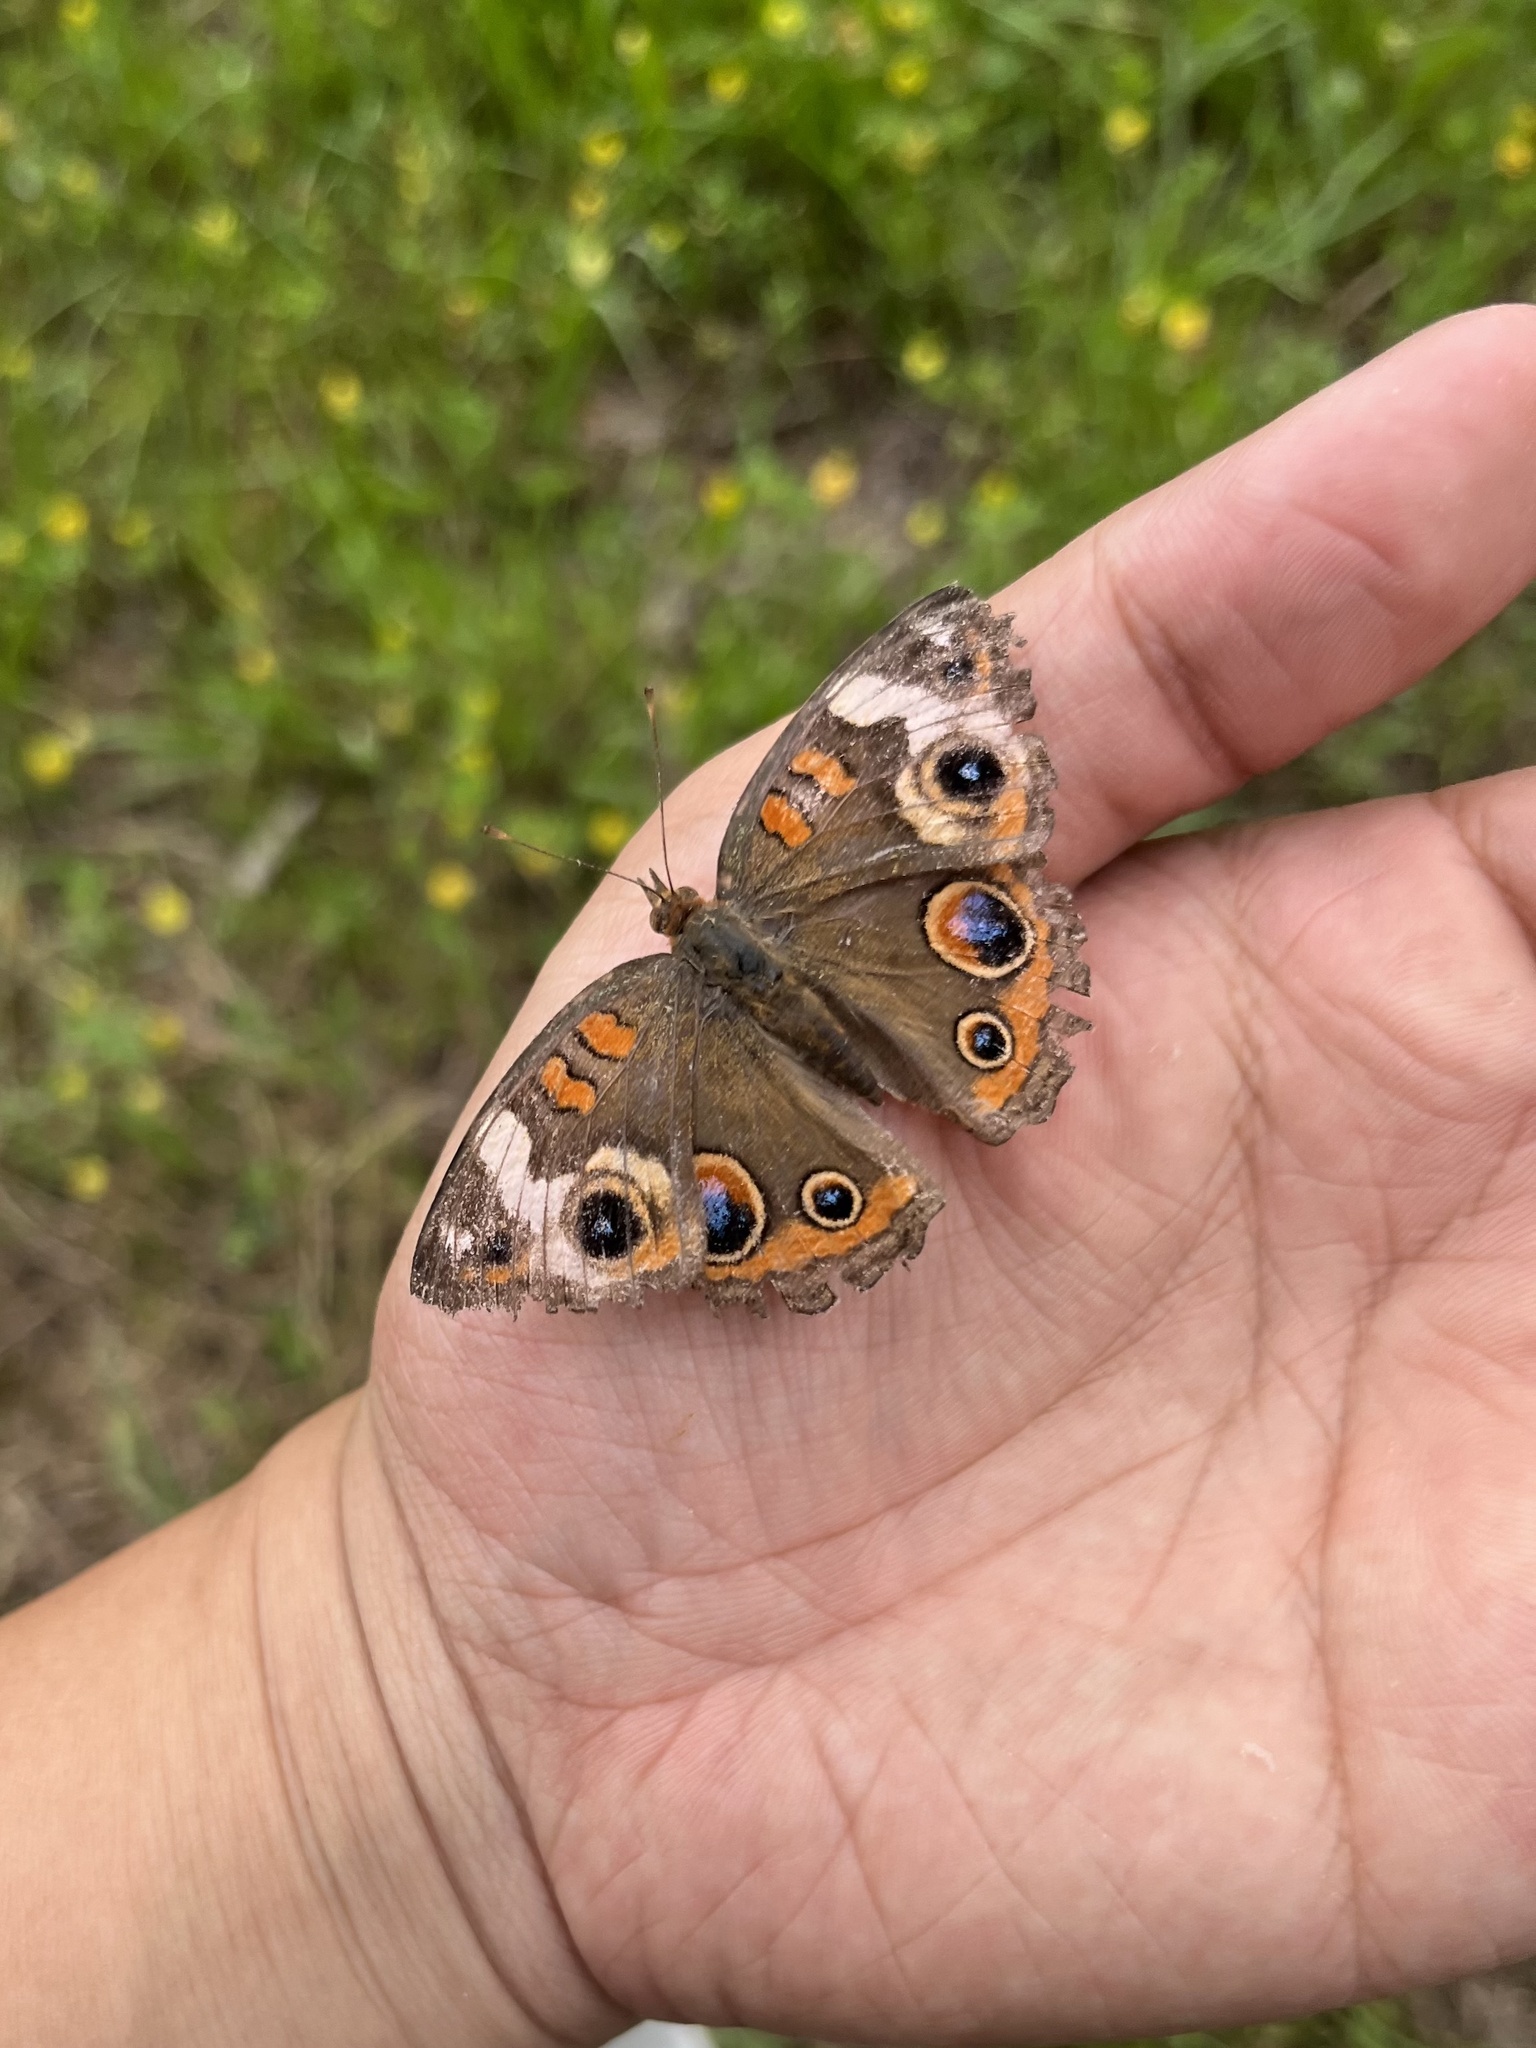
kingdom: Animalia
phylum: Arthropoda
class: Insecta
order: Lepidoptera
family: Nymphalidae
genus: Junonia
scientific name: Junonia coenia
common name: Common buckeye
